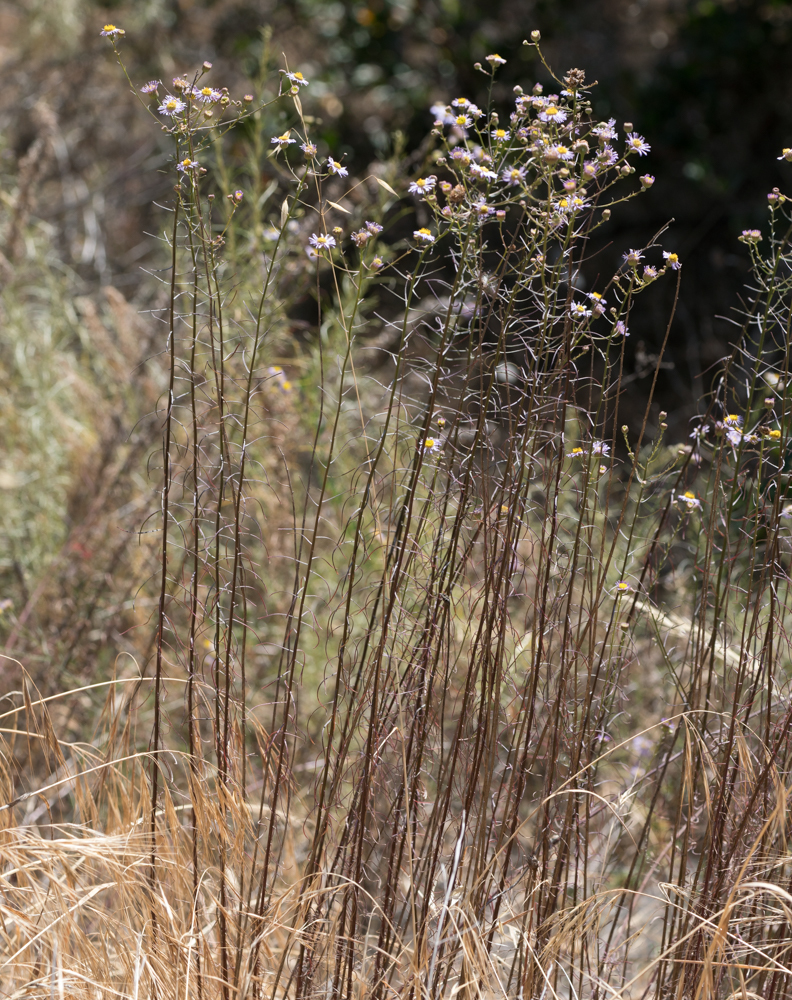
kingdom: Plantae
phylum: Tracheophyta
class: Magnoliopsida
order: Asterales
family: Asteraceae
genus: Erigeron
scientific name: Erigeron foliosus
